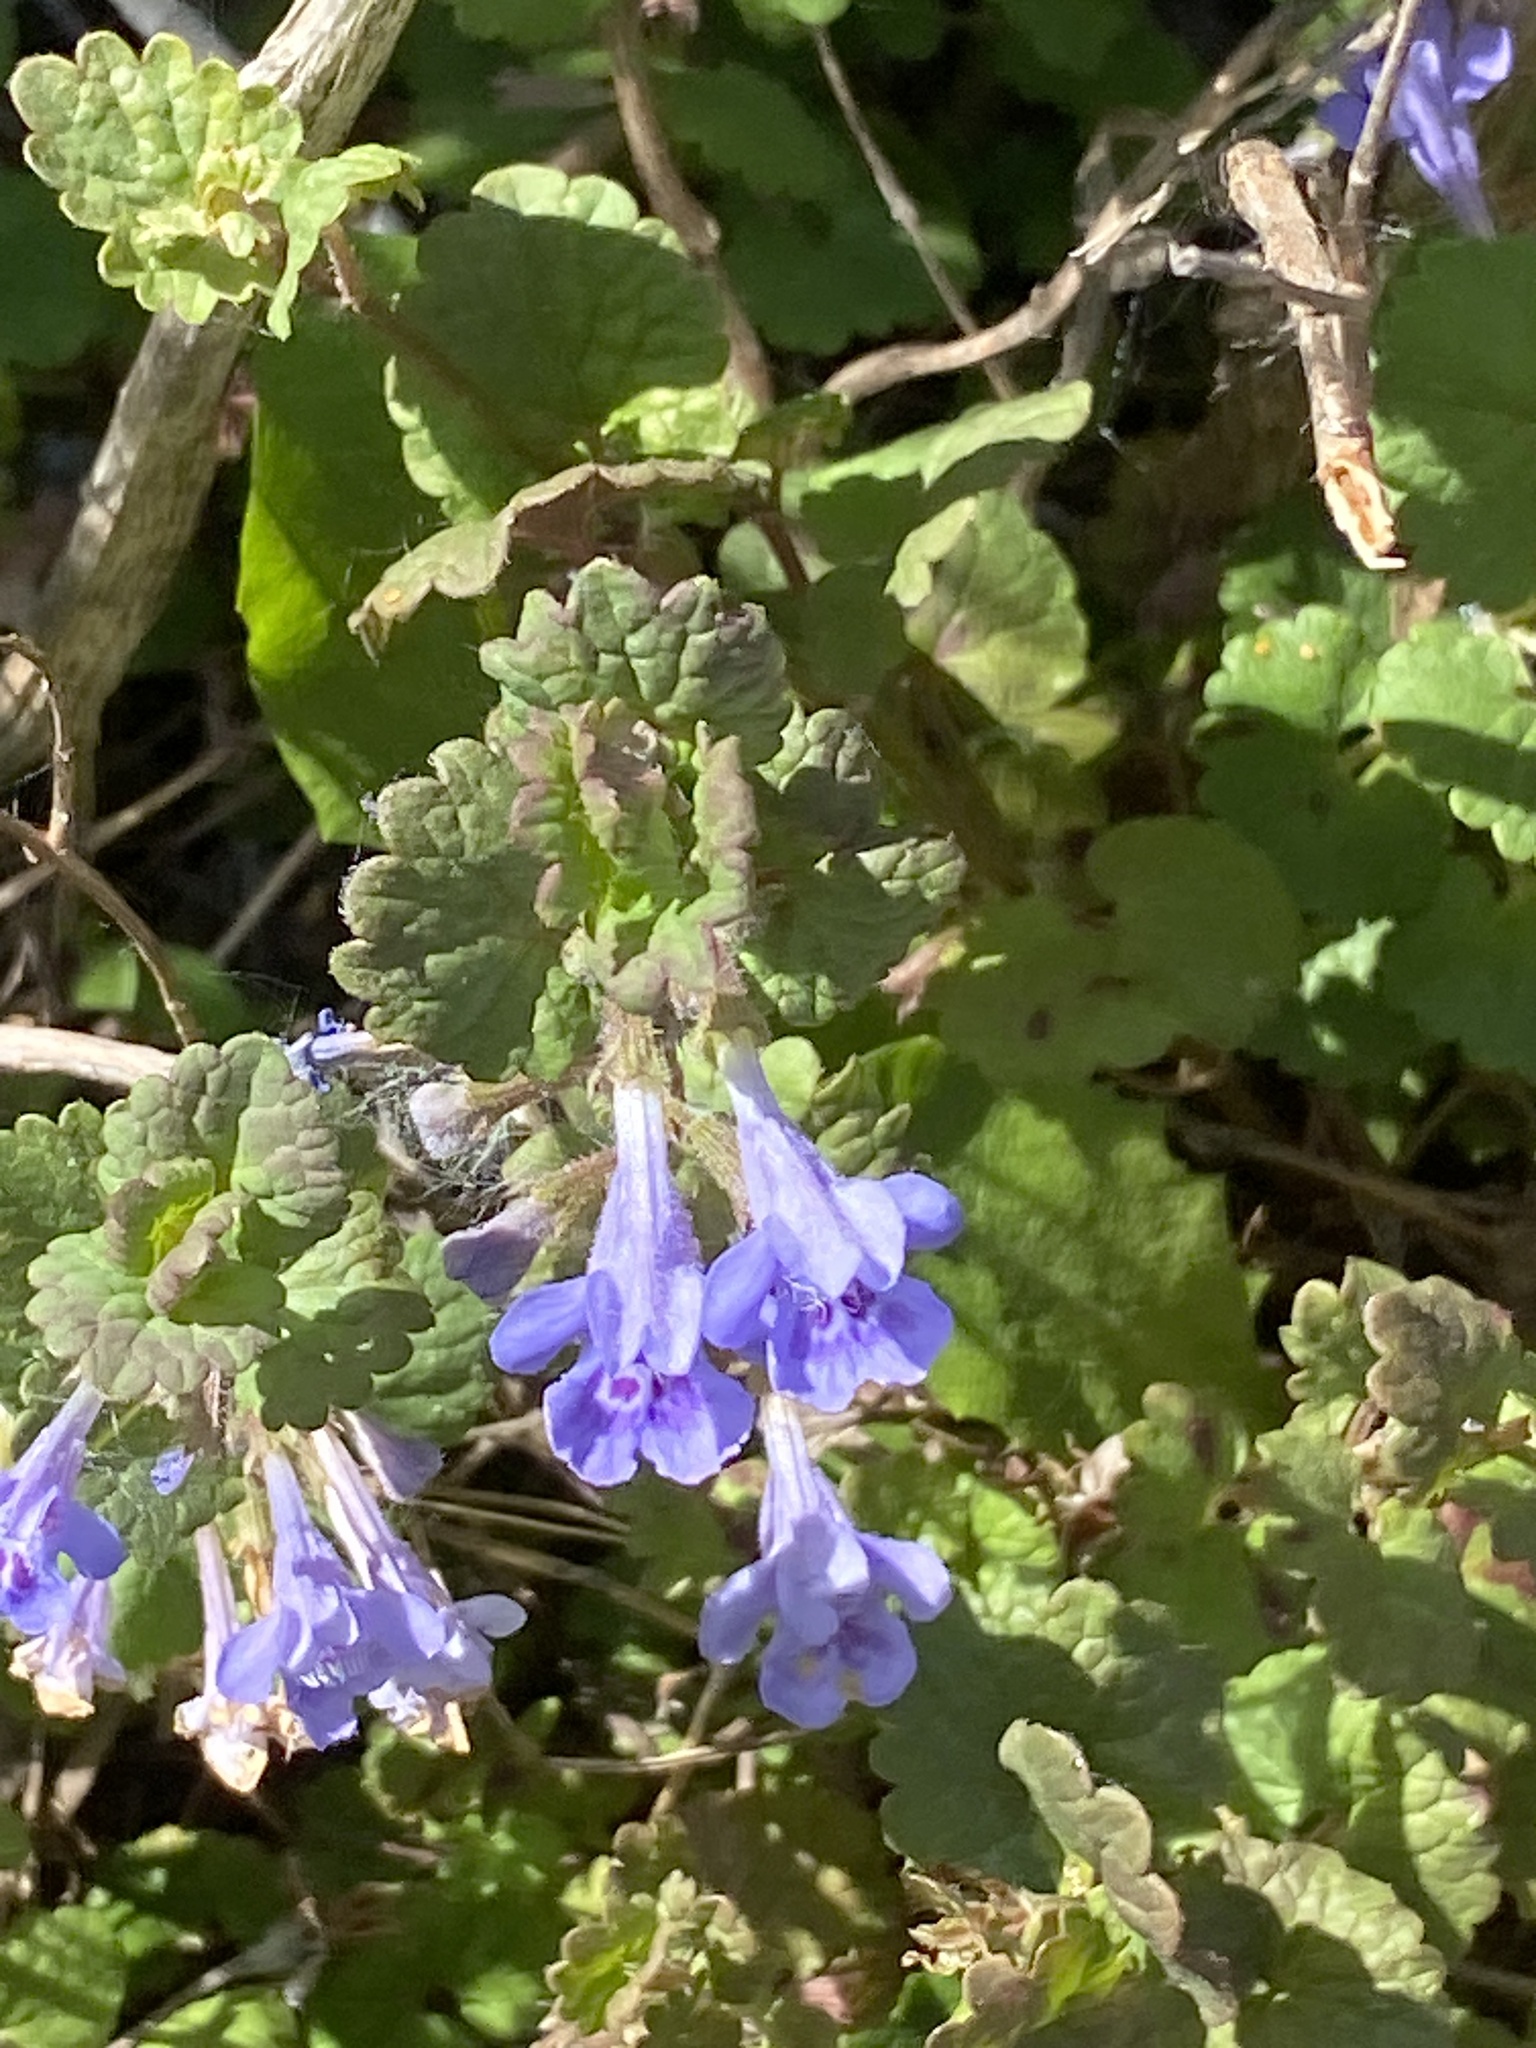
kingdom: Plantae
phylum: Tracheophyta
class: Magnoliopsida
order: Lamiales
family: Lamiaceae
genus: Glechoma
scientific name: Glechoma hederacea
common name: Ground ivy
